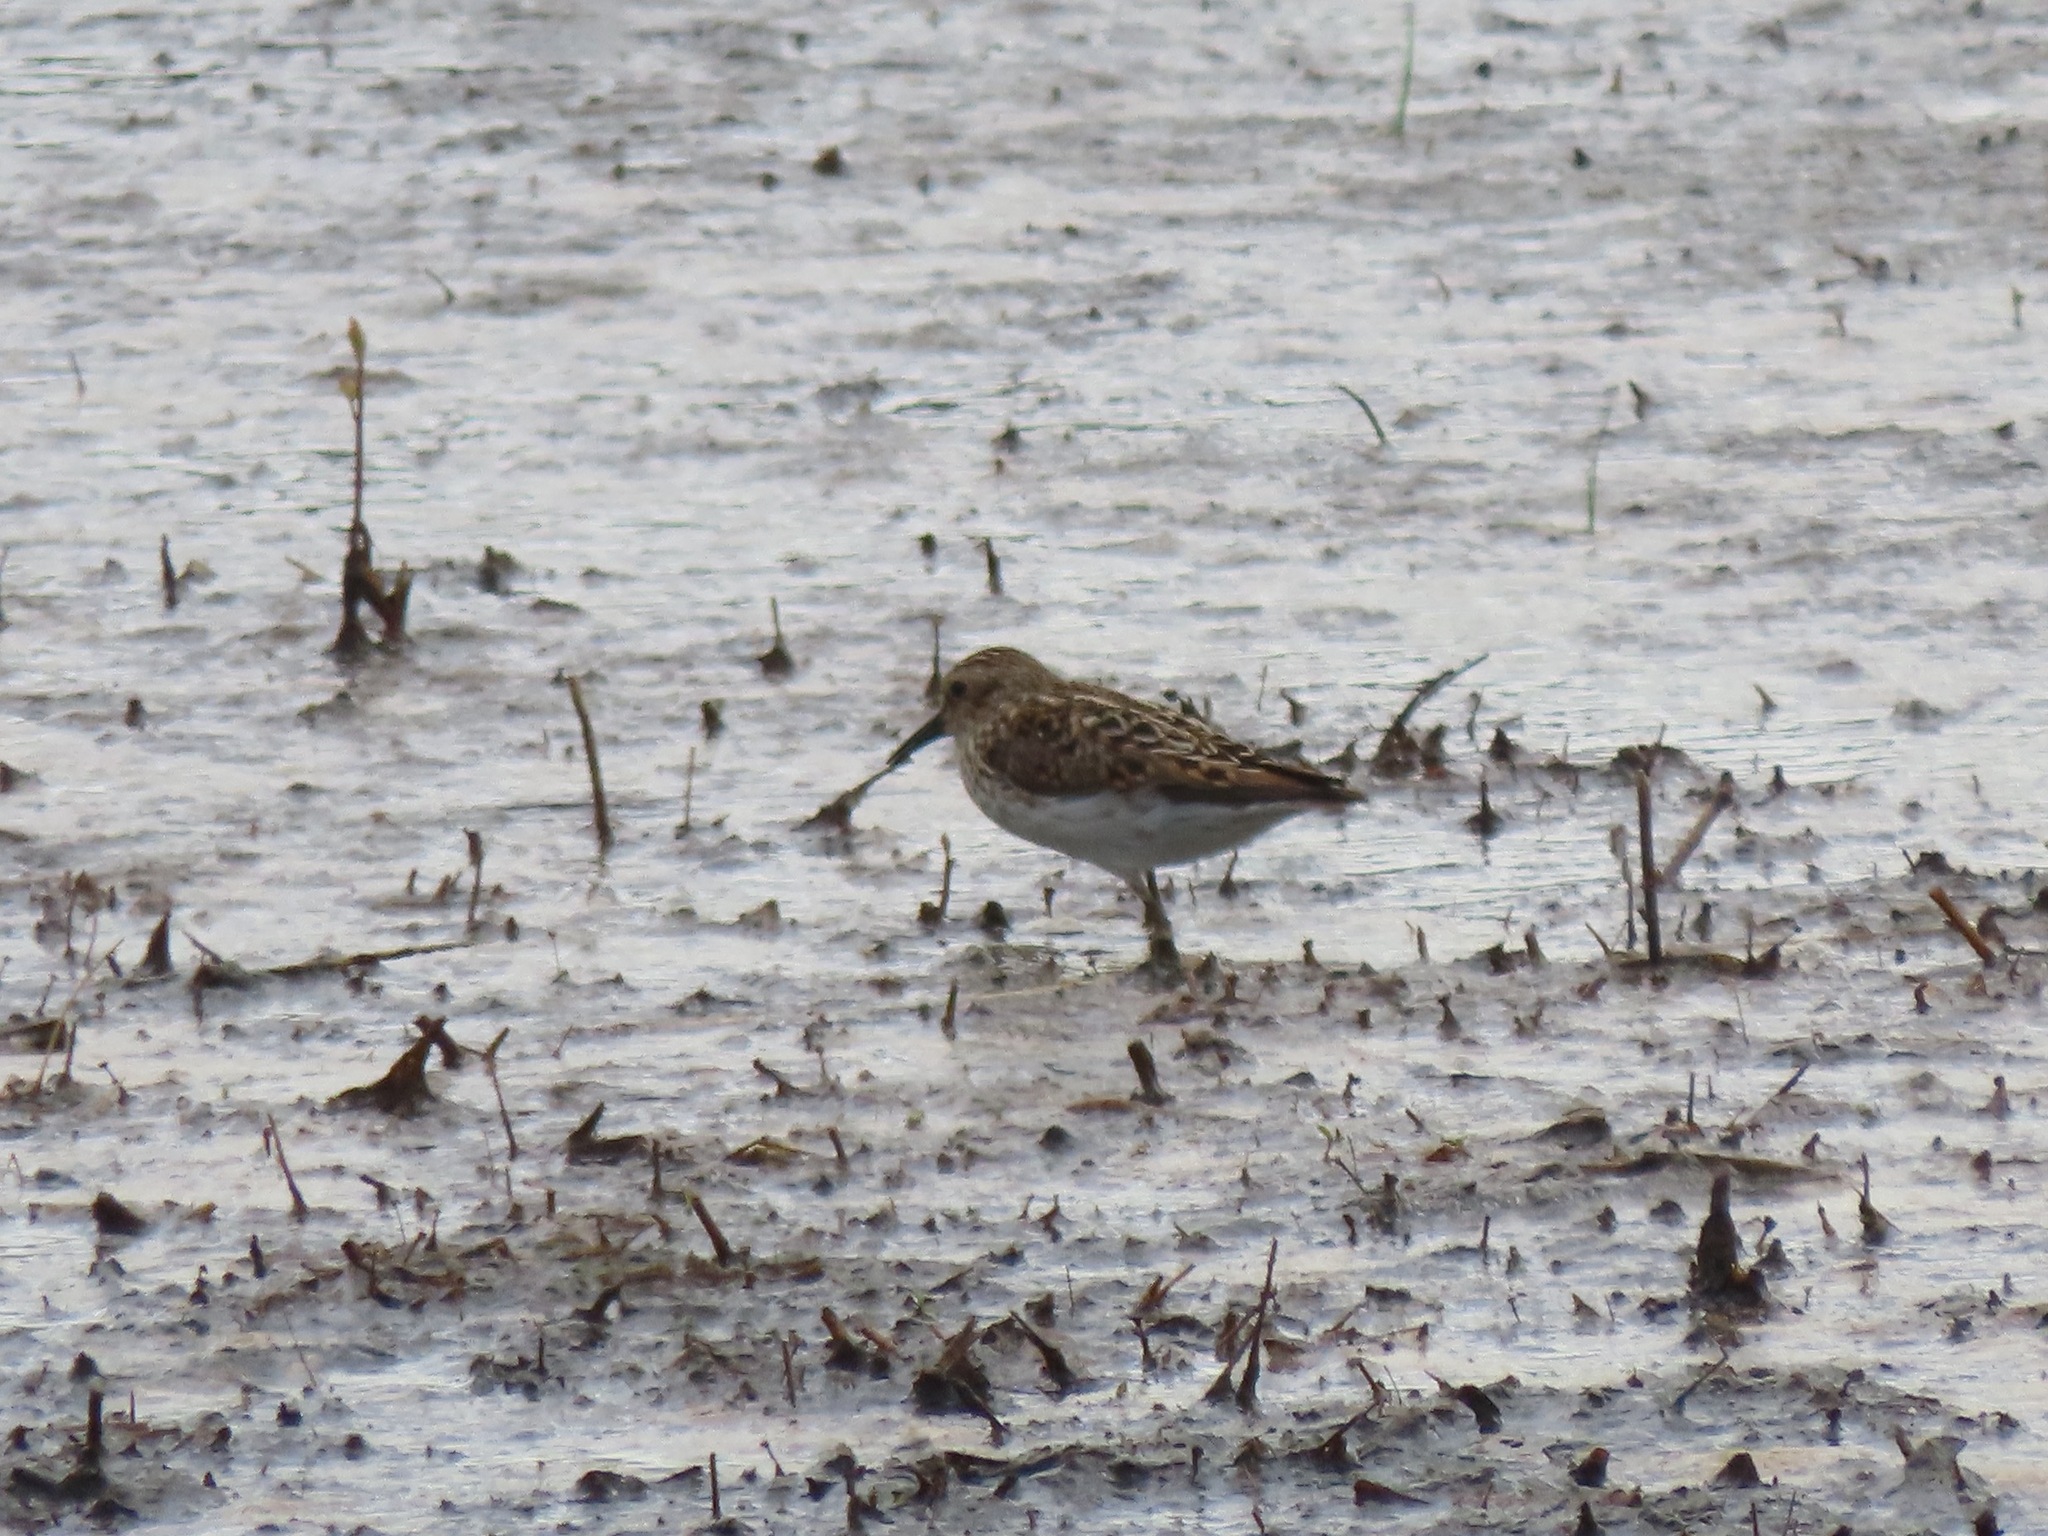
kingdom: Animalia
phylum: Chordata
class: Aves
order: Charadriiformes
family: Scolopacidae
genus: Calidris
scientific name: Calidris minutilla
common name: Least sandpiper
